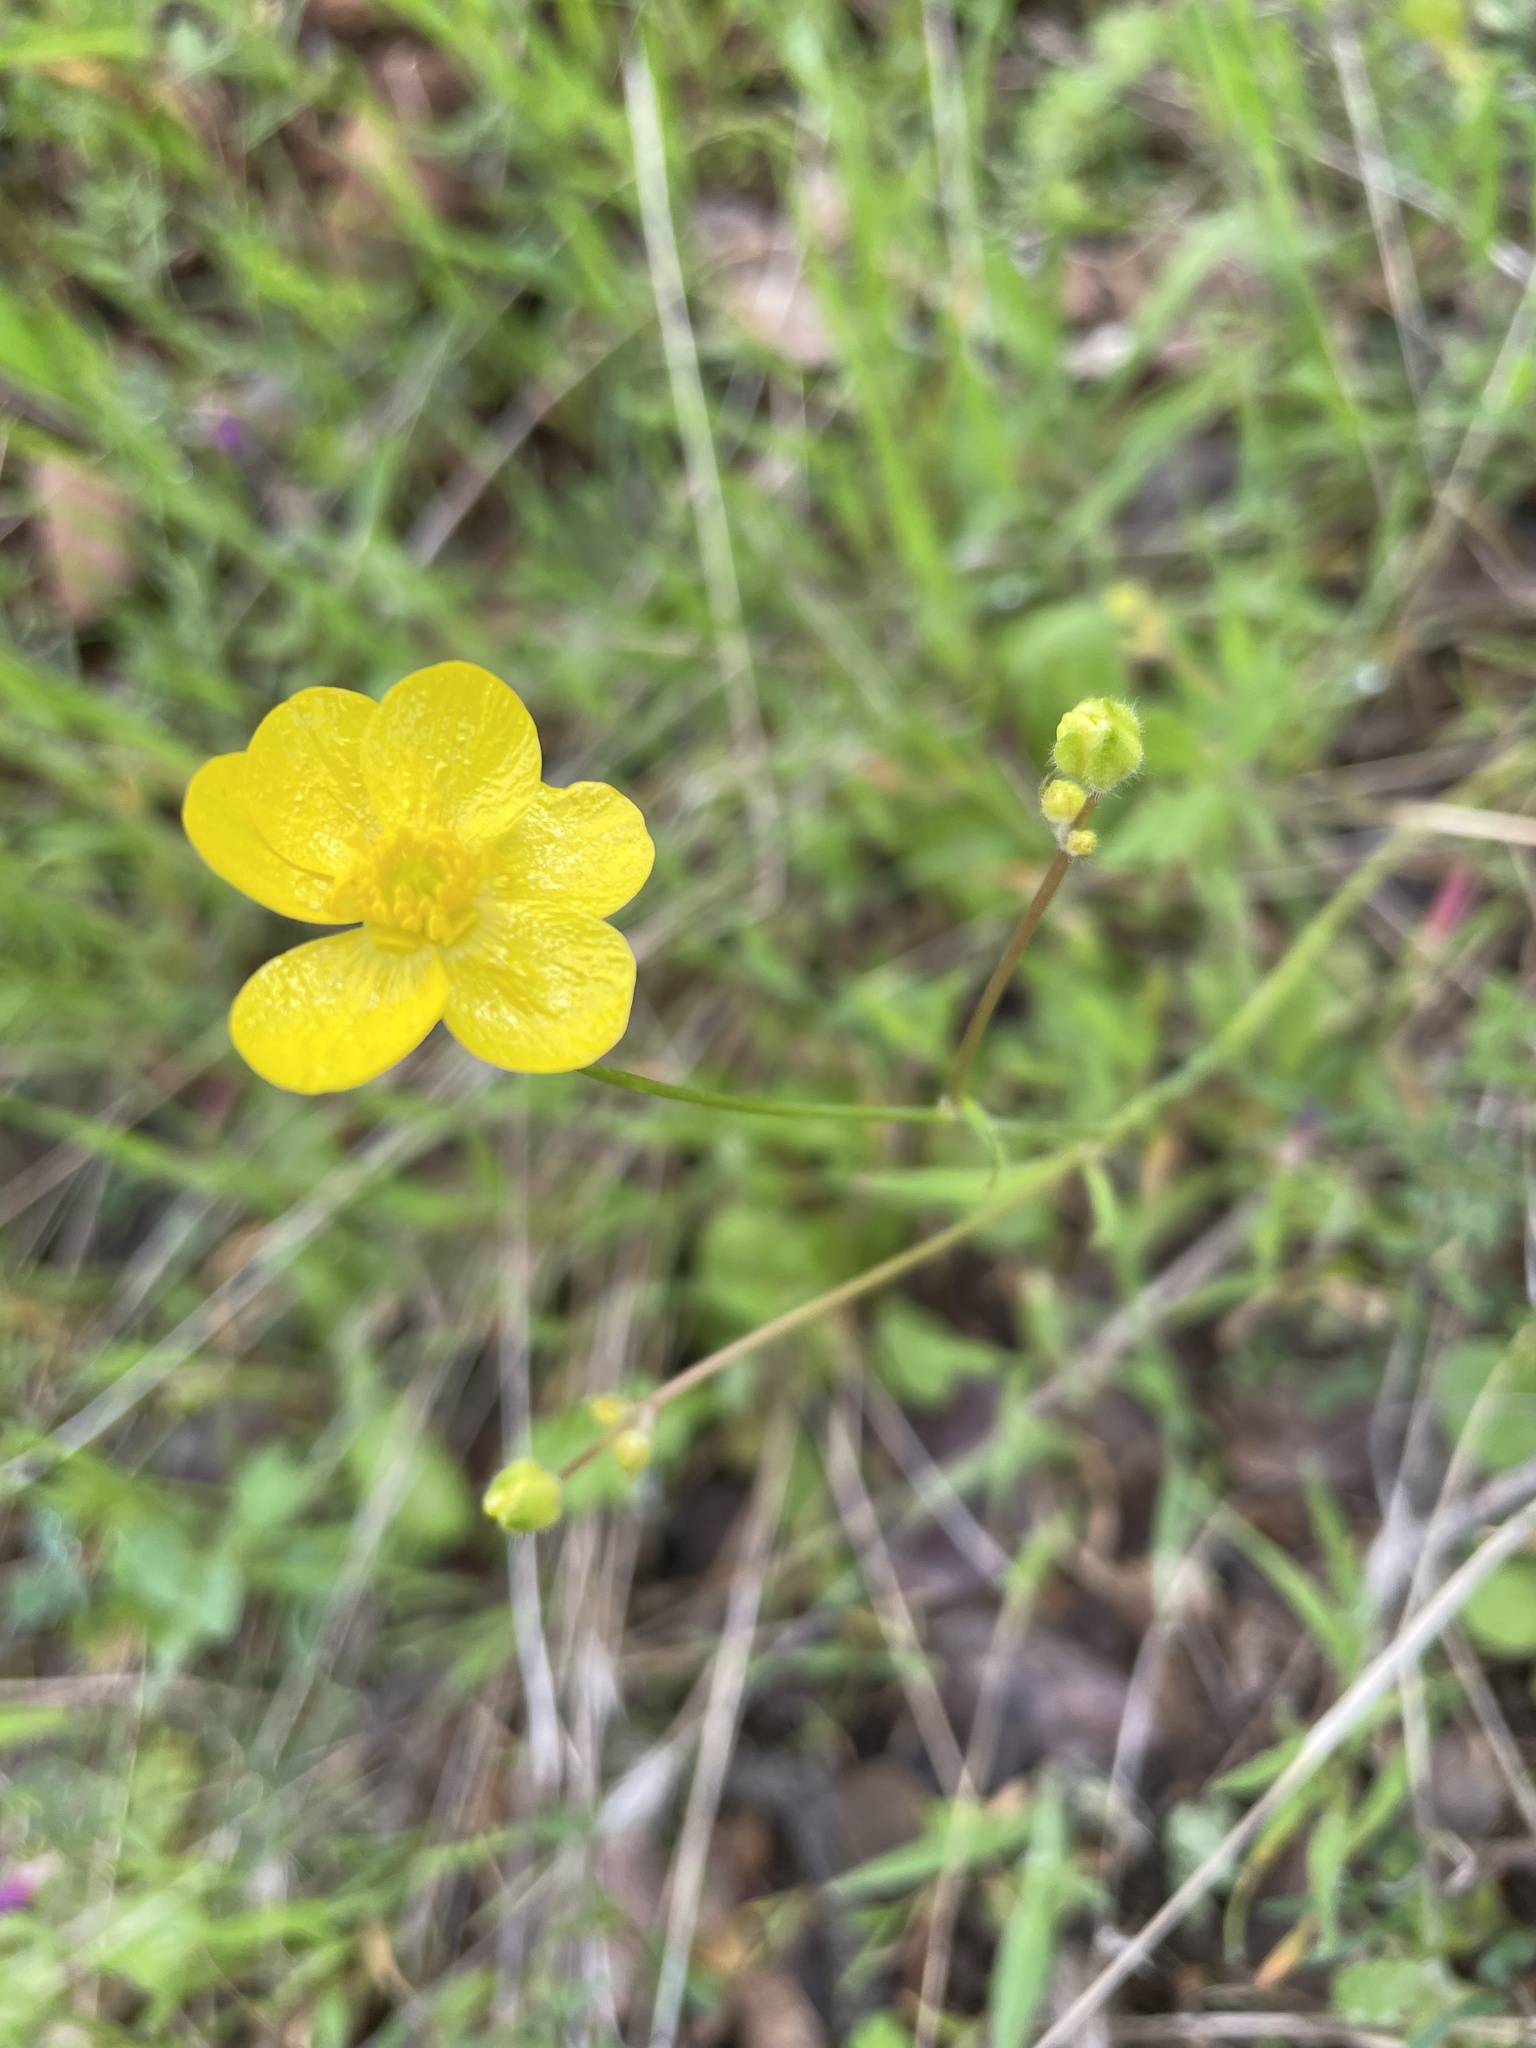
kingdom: Plantae
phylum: Tracheophyta
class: Magnoliopsida
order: Ranunculales
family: Ranunculaceae
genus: Ranunculus
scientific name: Ranunculus occidentalis
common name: Western buttercup
